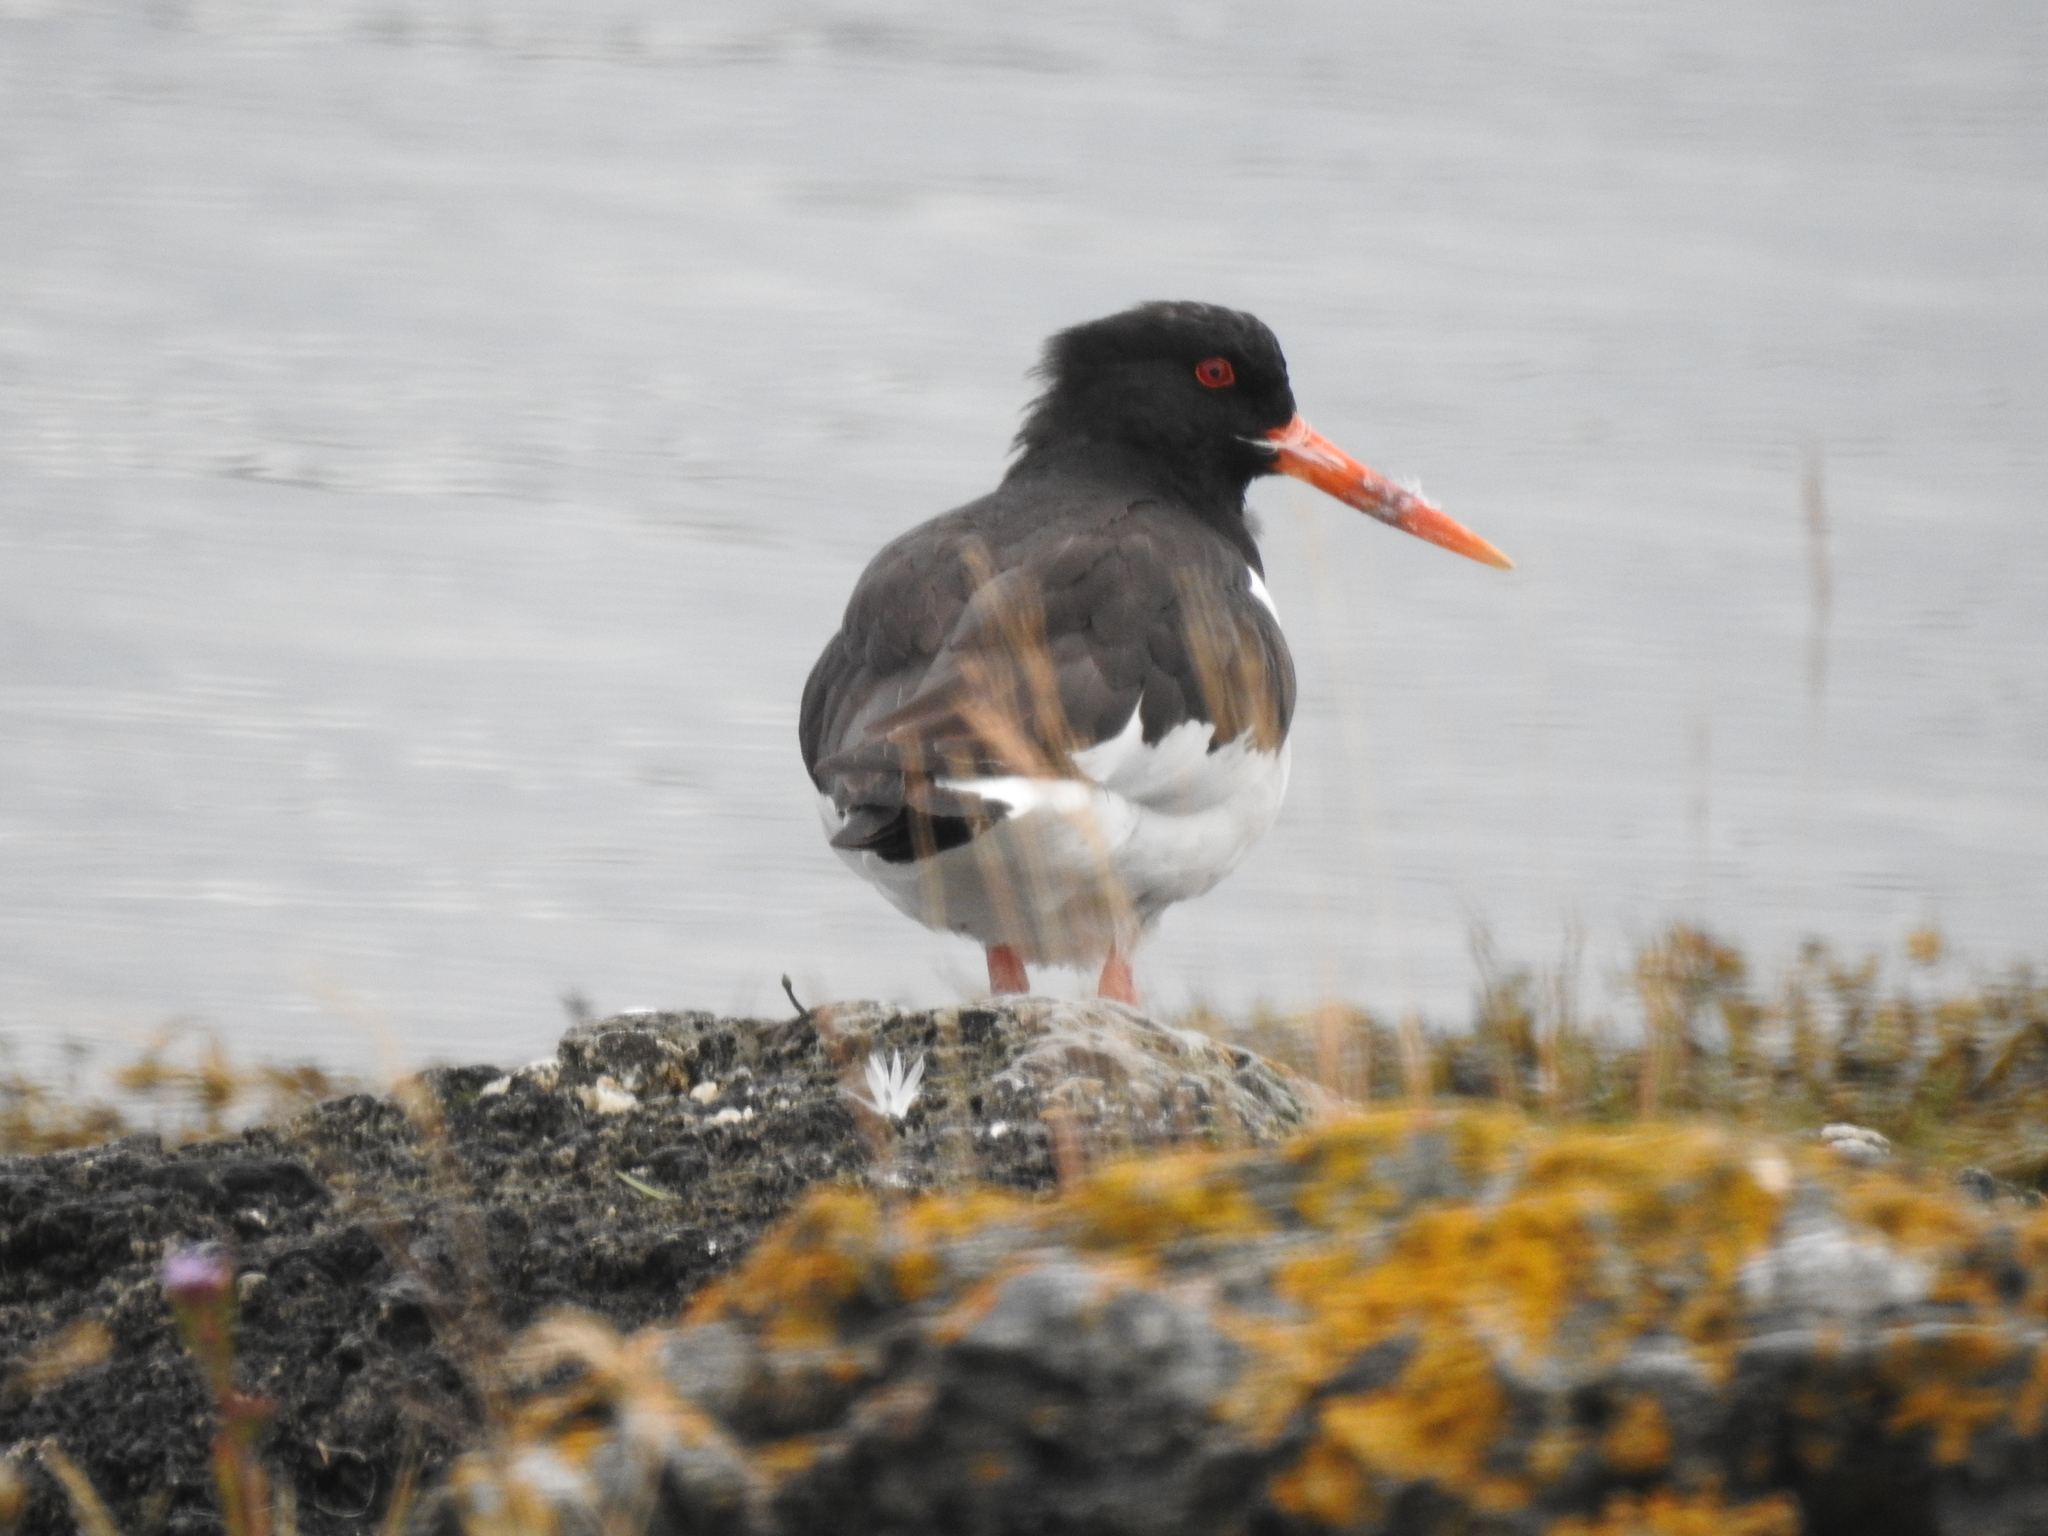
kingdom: Animalia
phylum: Chordata
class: Aves
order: Charadriiformes
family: Haematopodidae
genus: Haematopus
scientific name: Haematopus ostralegus
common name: Eurasian oystercatcher
